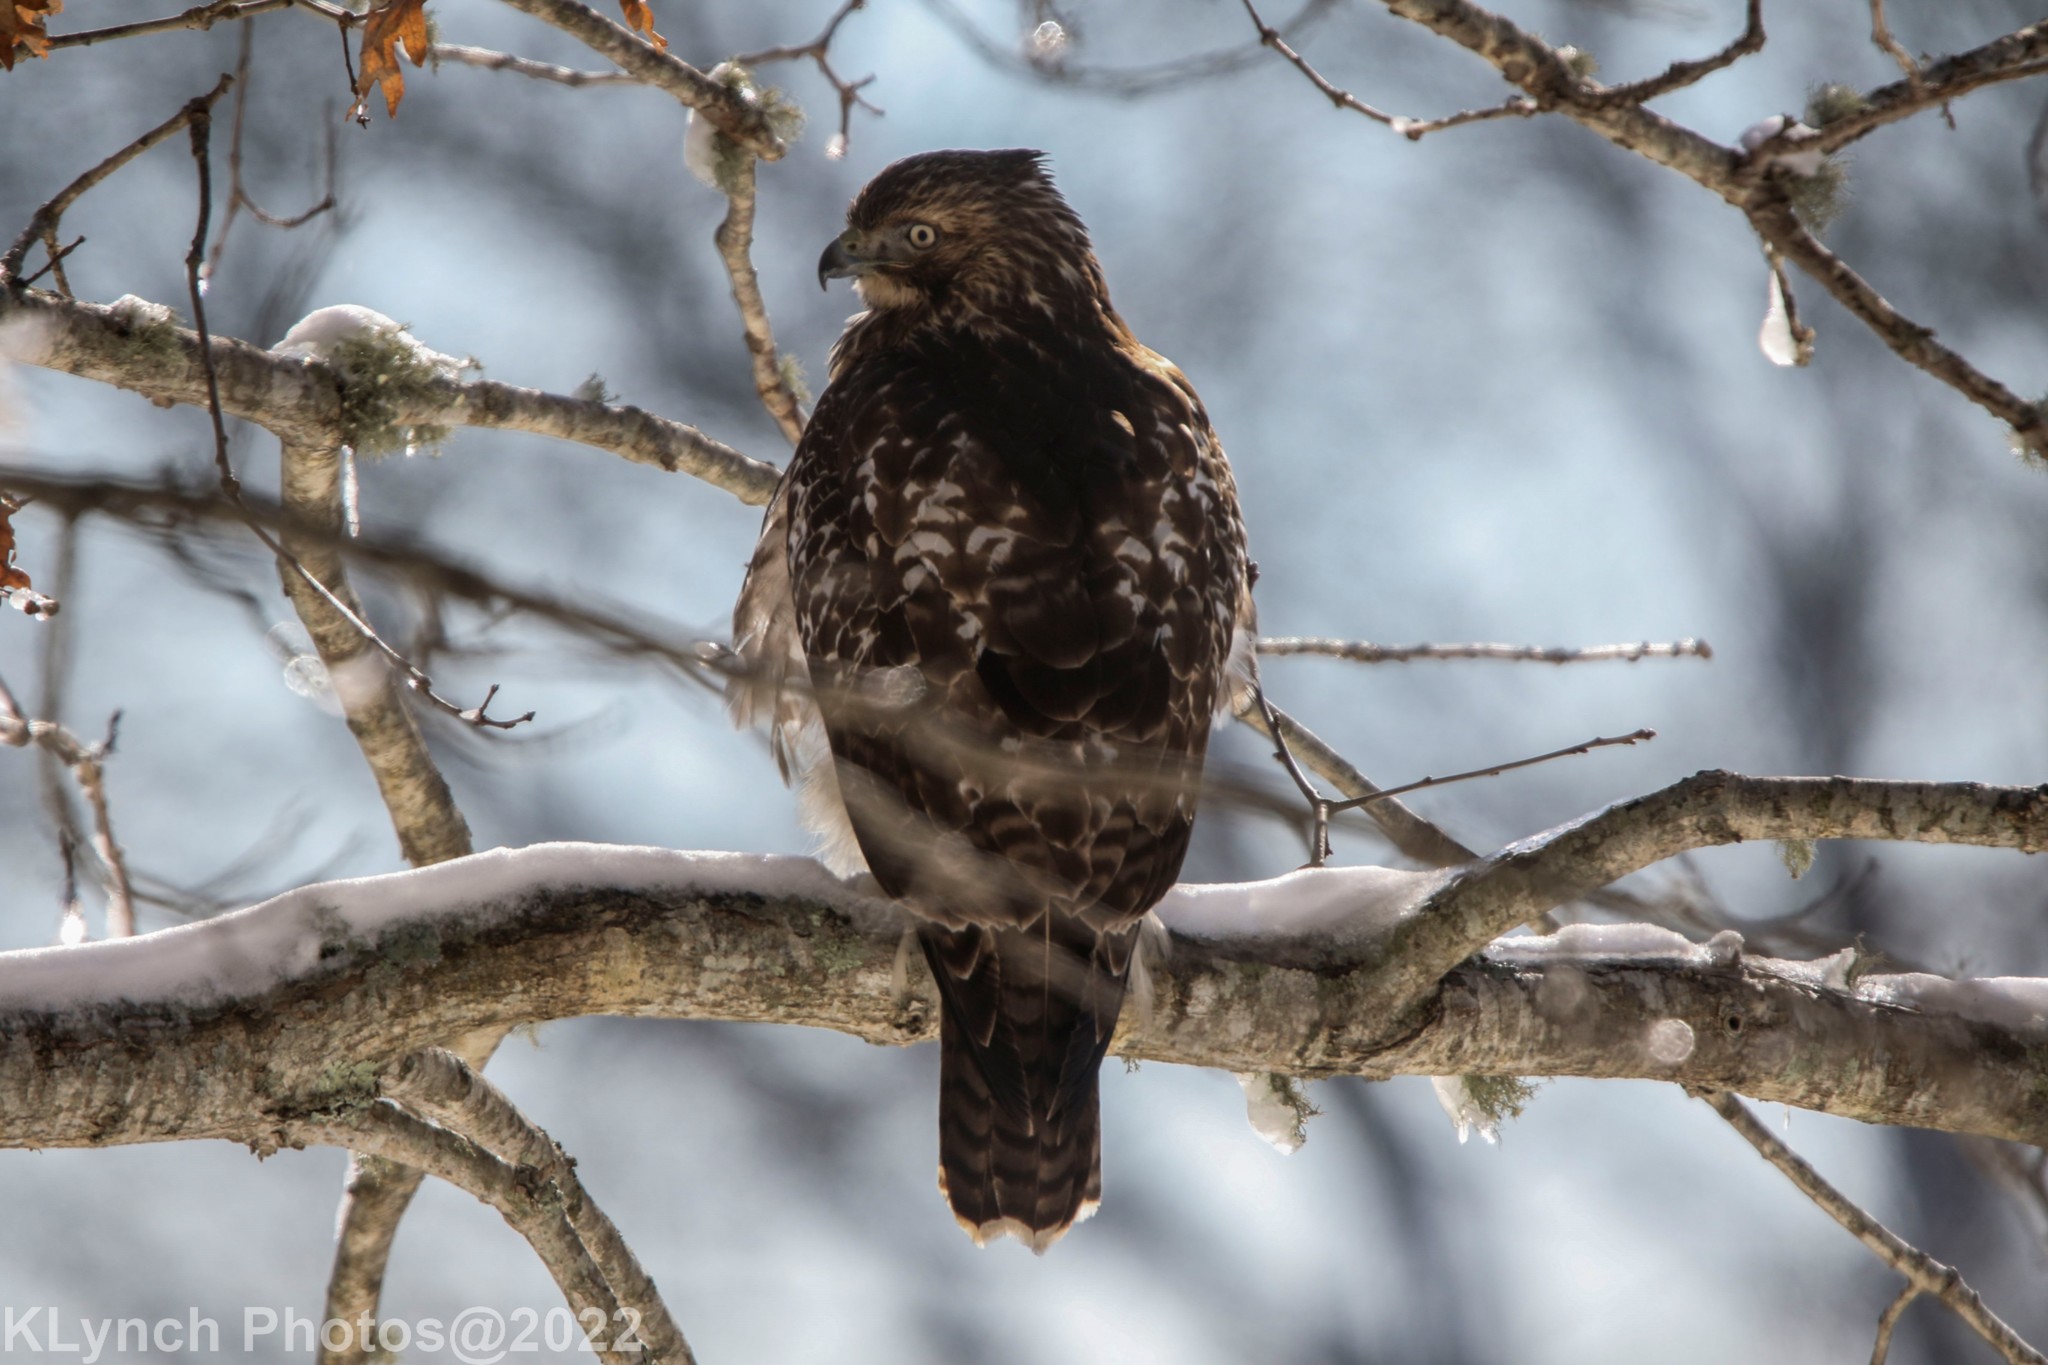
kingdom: Animalia
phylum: Chordata
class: Aves
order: Accipitriformes
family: Accipitridae
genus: Buteo
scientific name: Buteo jamaicensis
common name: Red-tailed hawk
